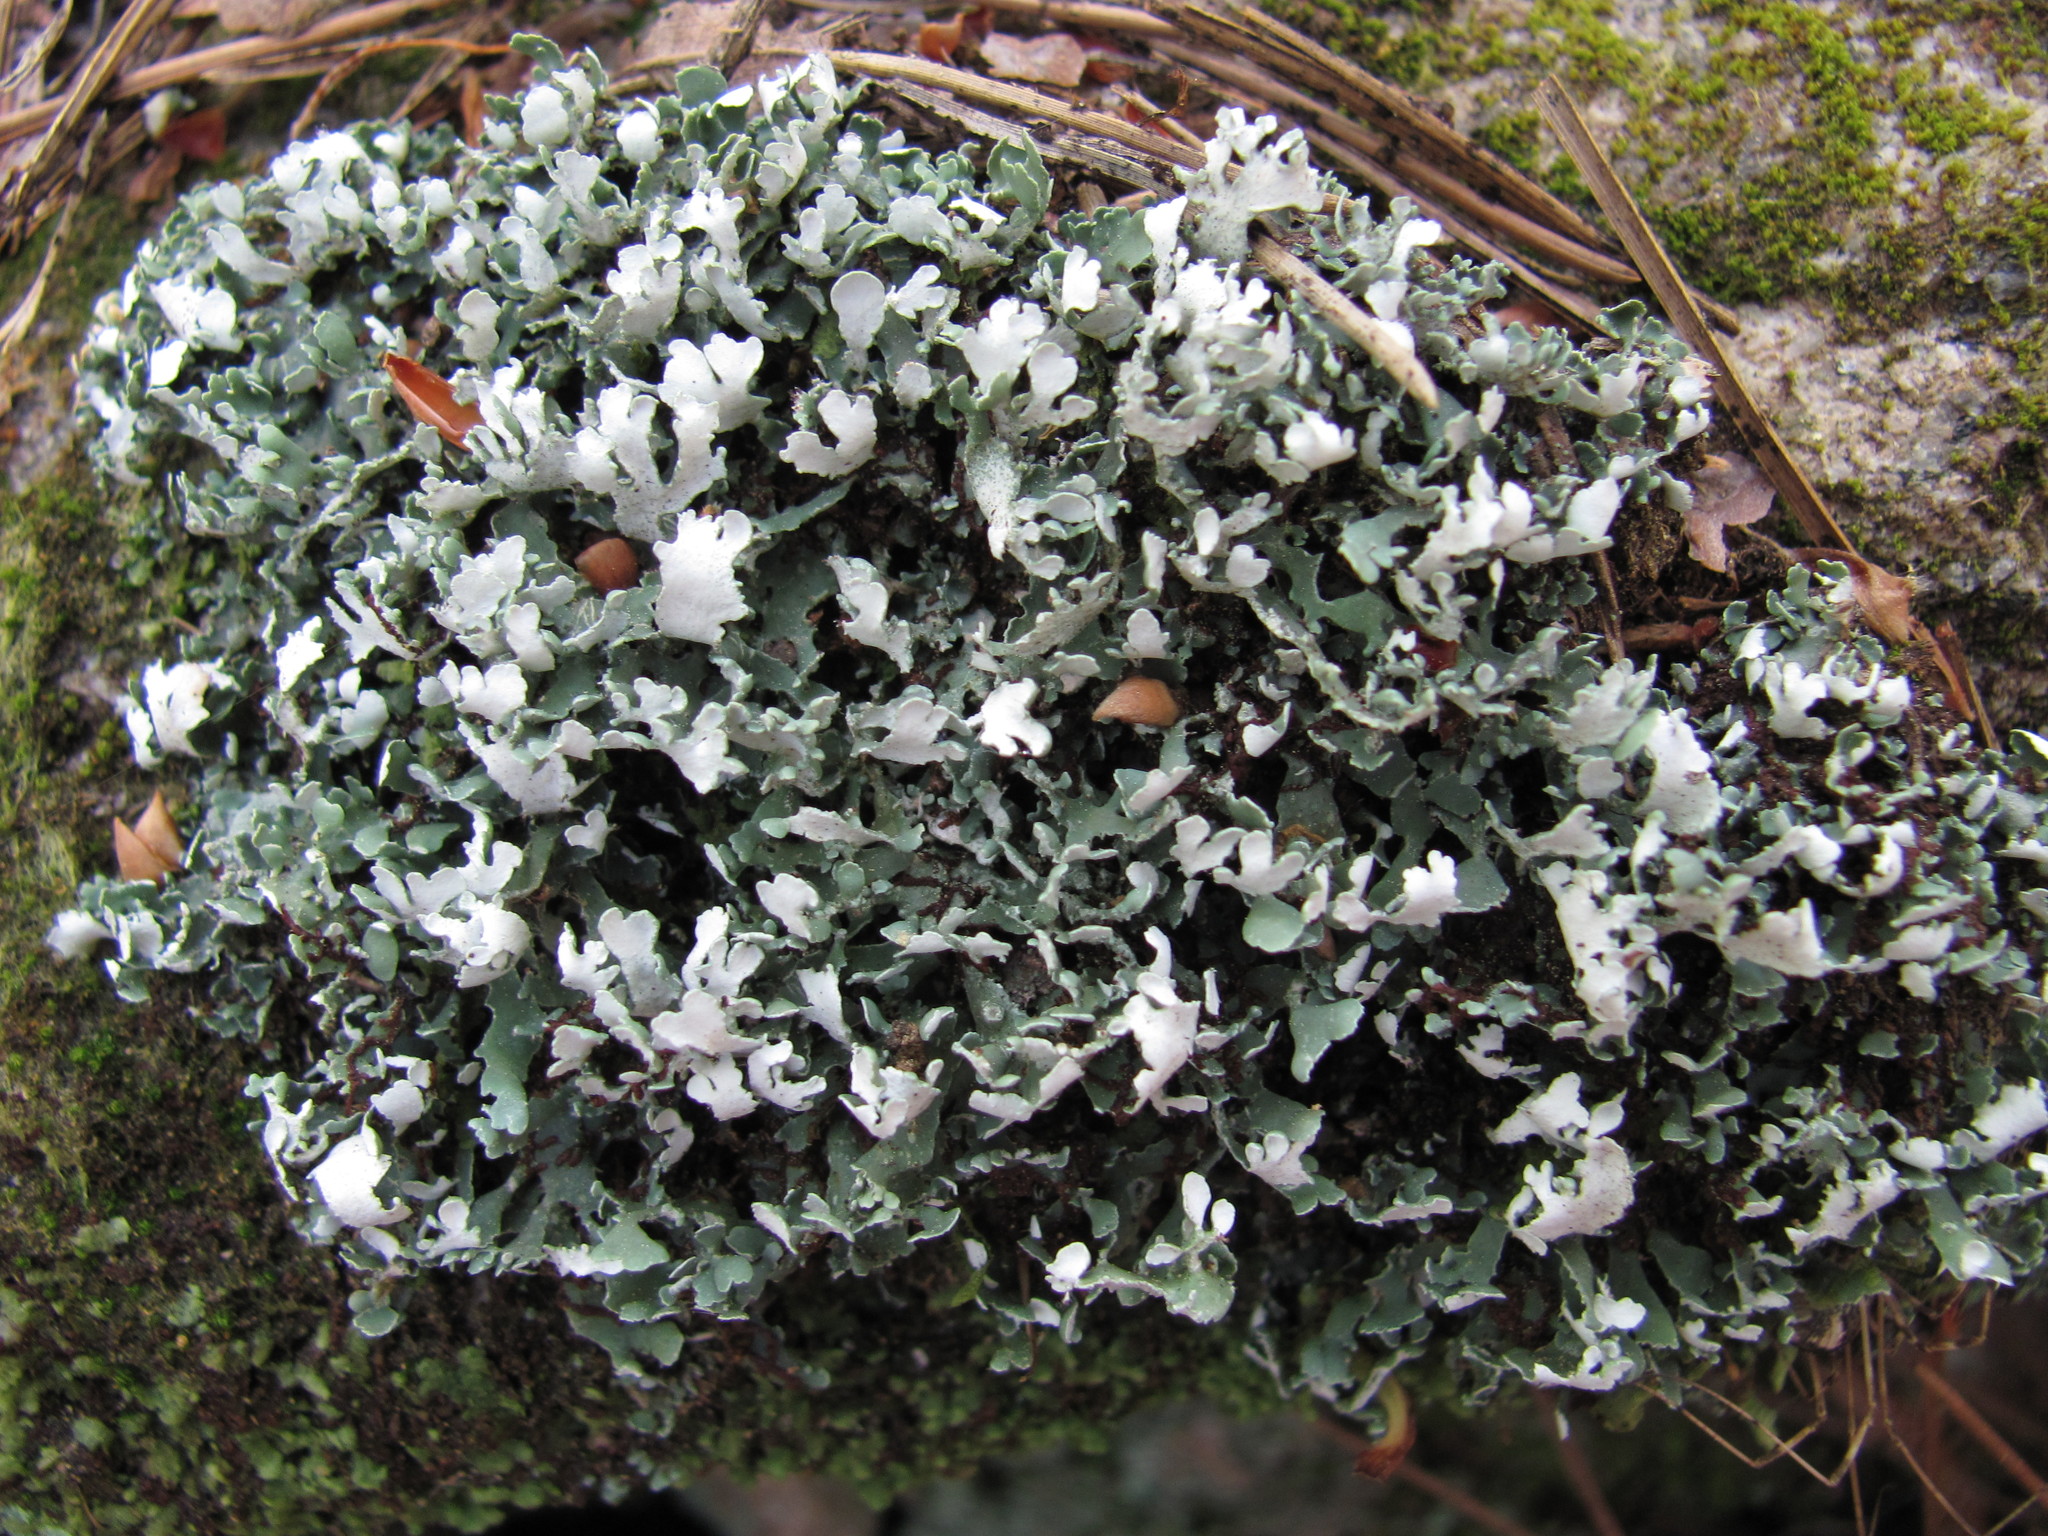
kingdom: Fungi
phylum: Ascomycota
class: Lecanoromycetes
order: Lecanorales
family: Cladoniaceae
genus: Cladonia
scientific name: Cladonia apodocarpa
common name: Stalkless cladonia
